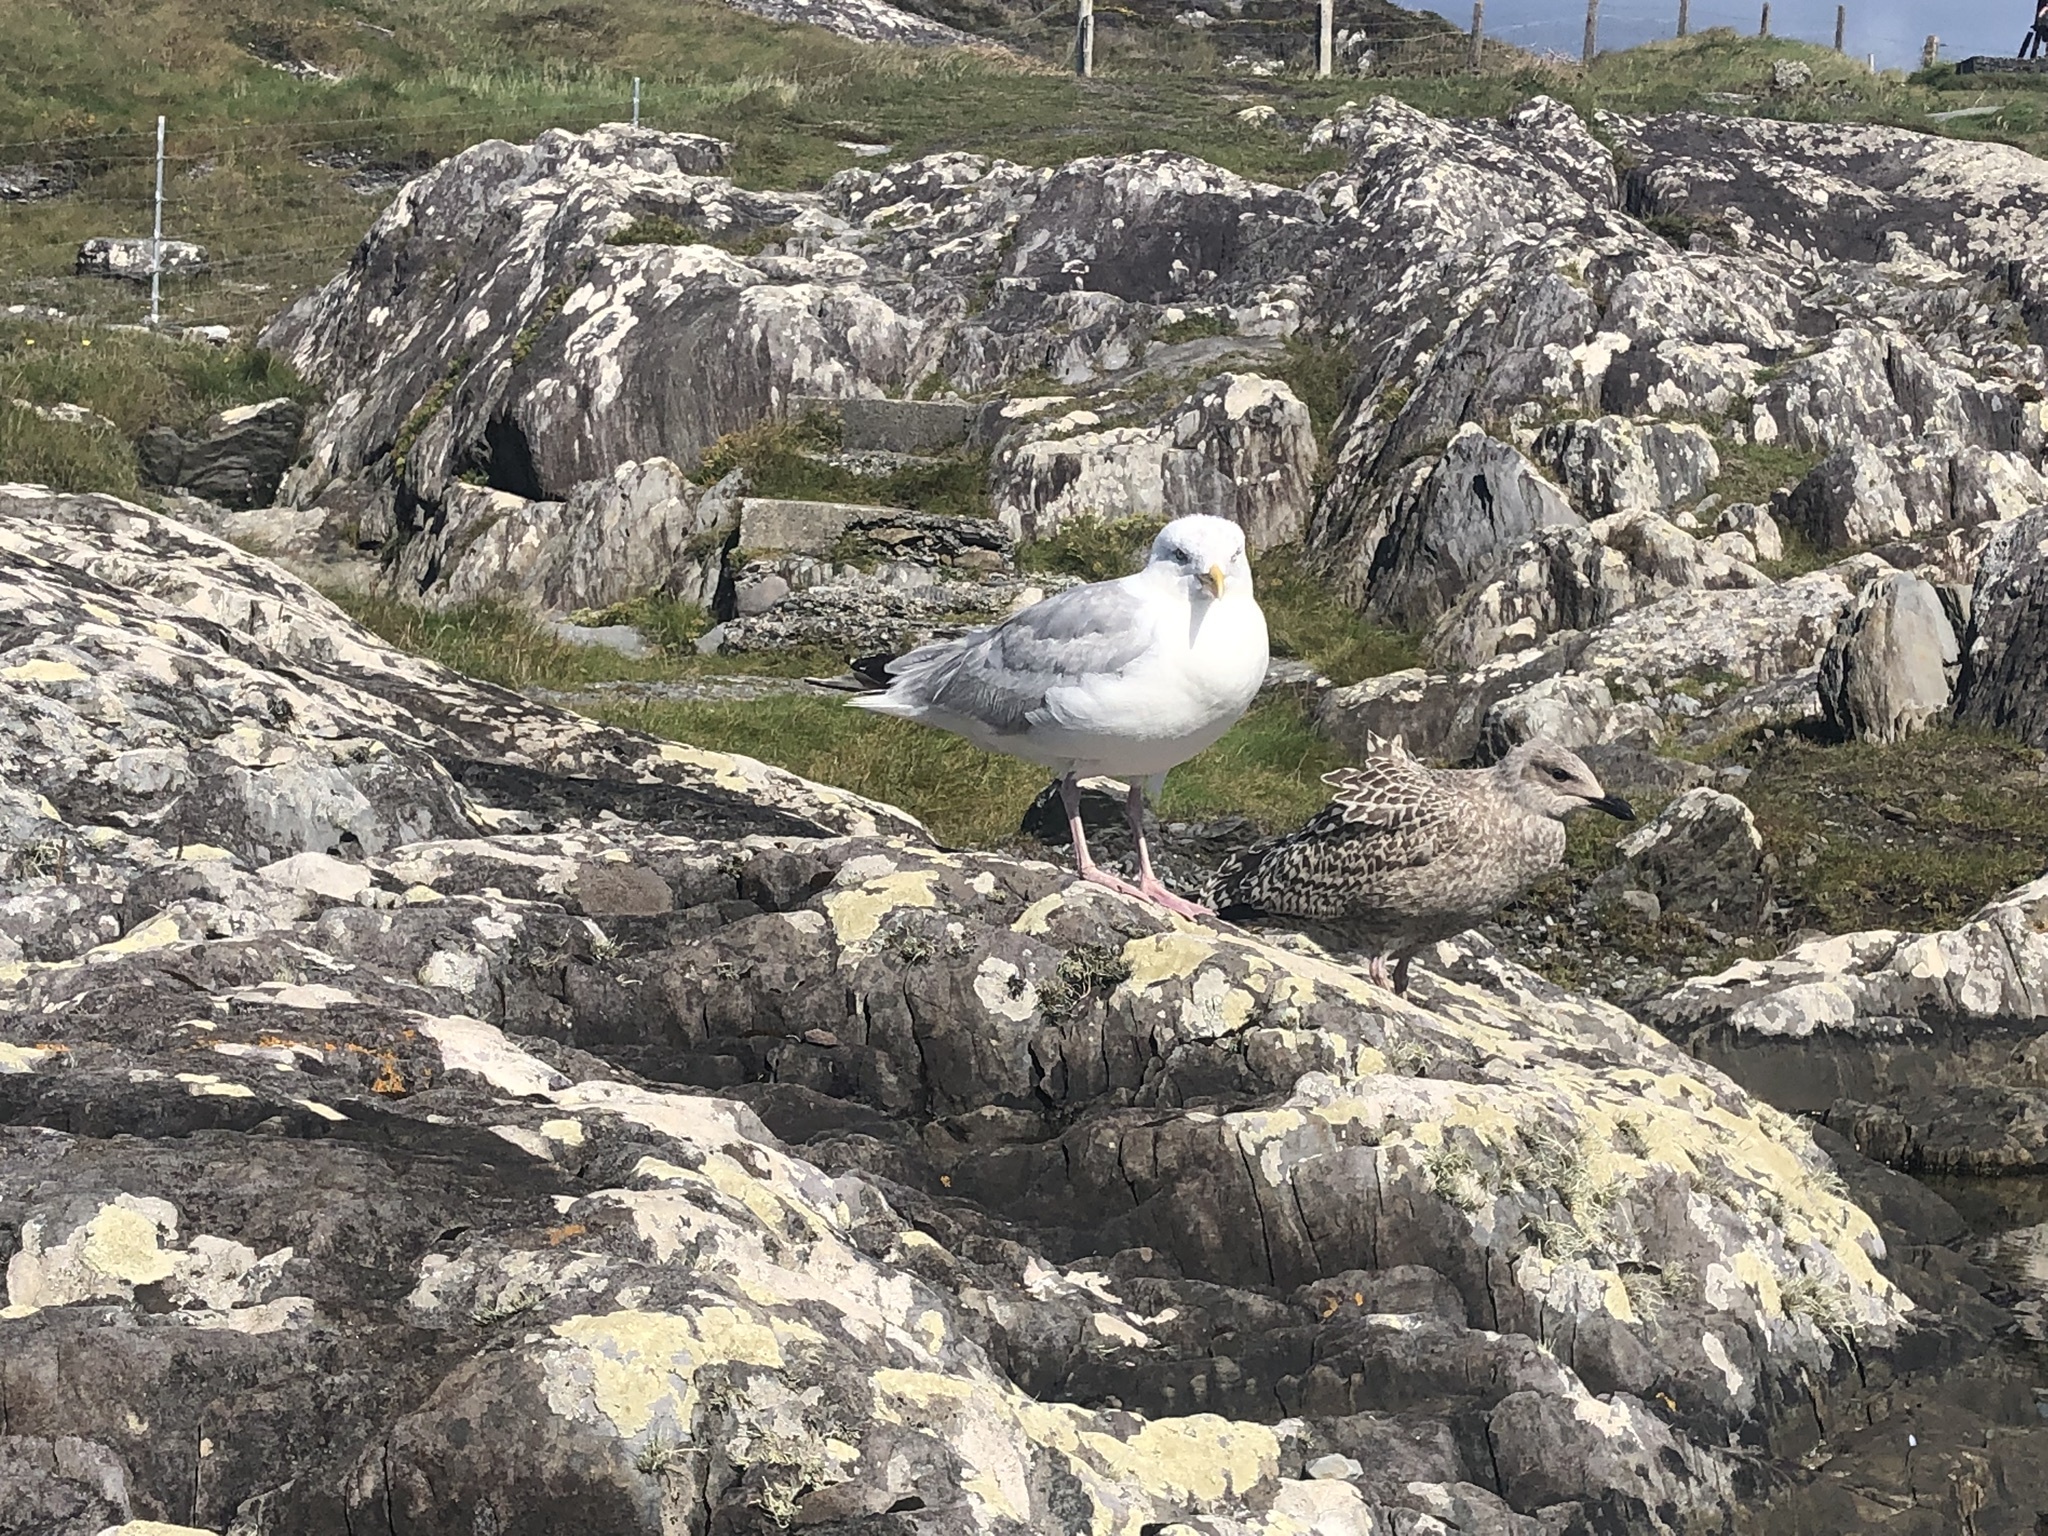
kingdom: Animalia
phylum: Chordata
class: Aves
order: Charadriiformes
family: Laridae
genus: Larus
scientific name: Larus argentatus
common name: Herring gull
